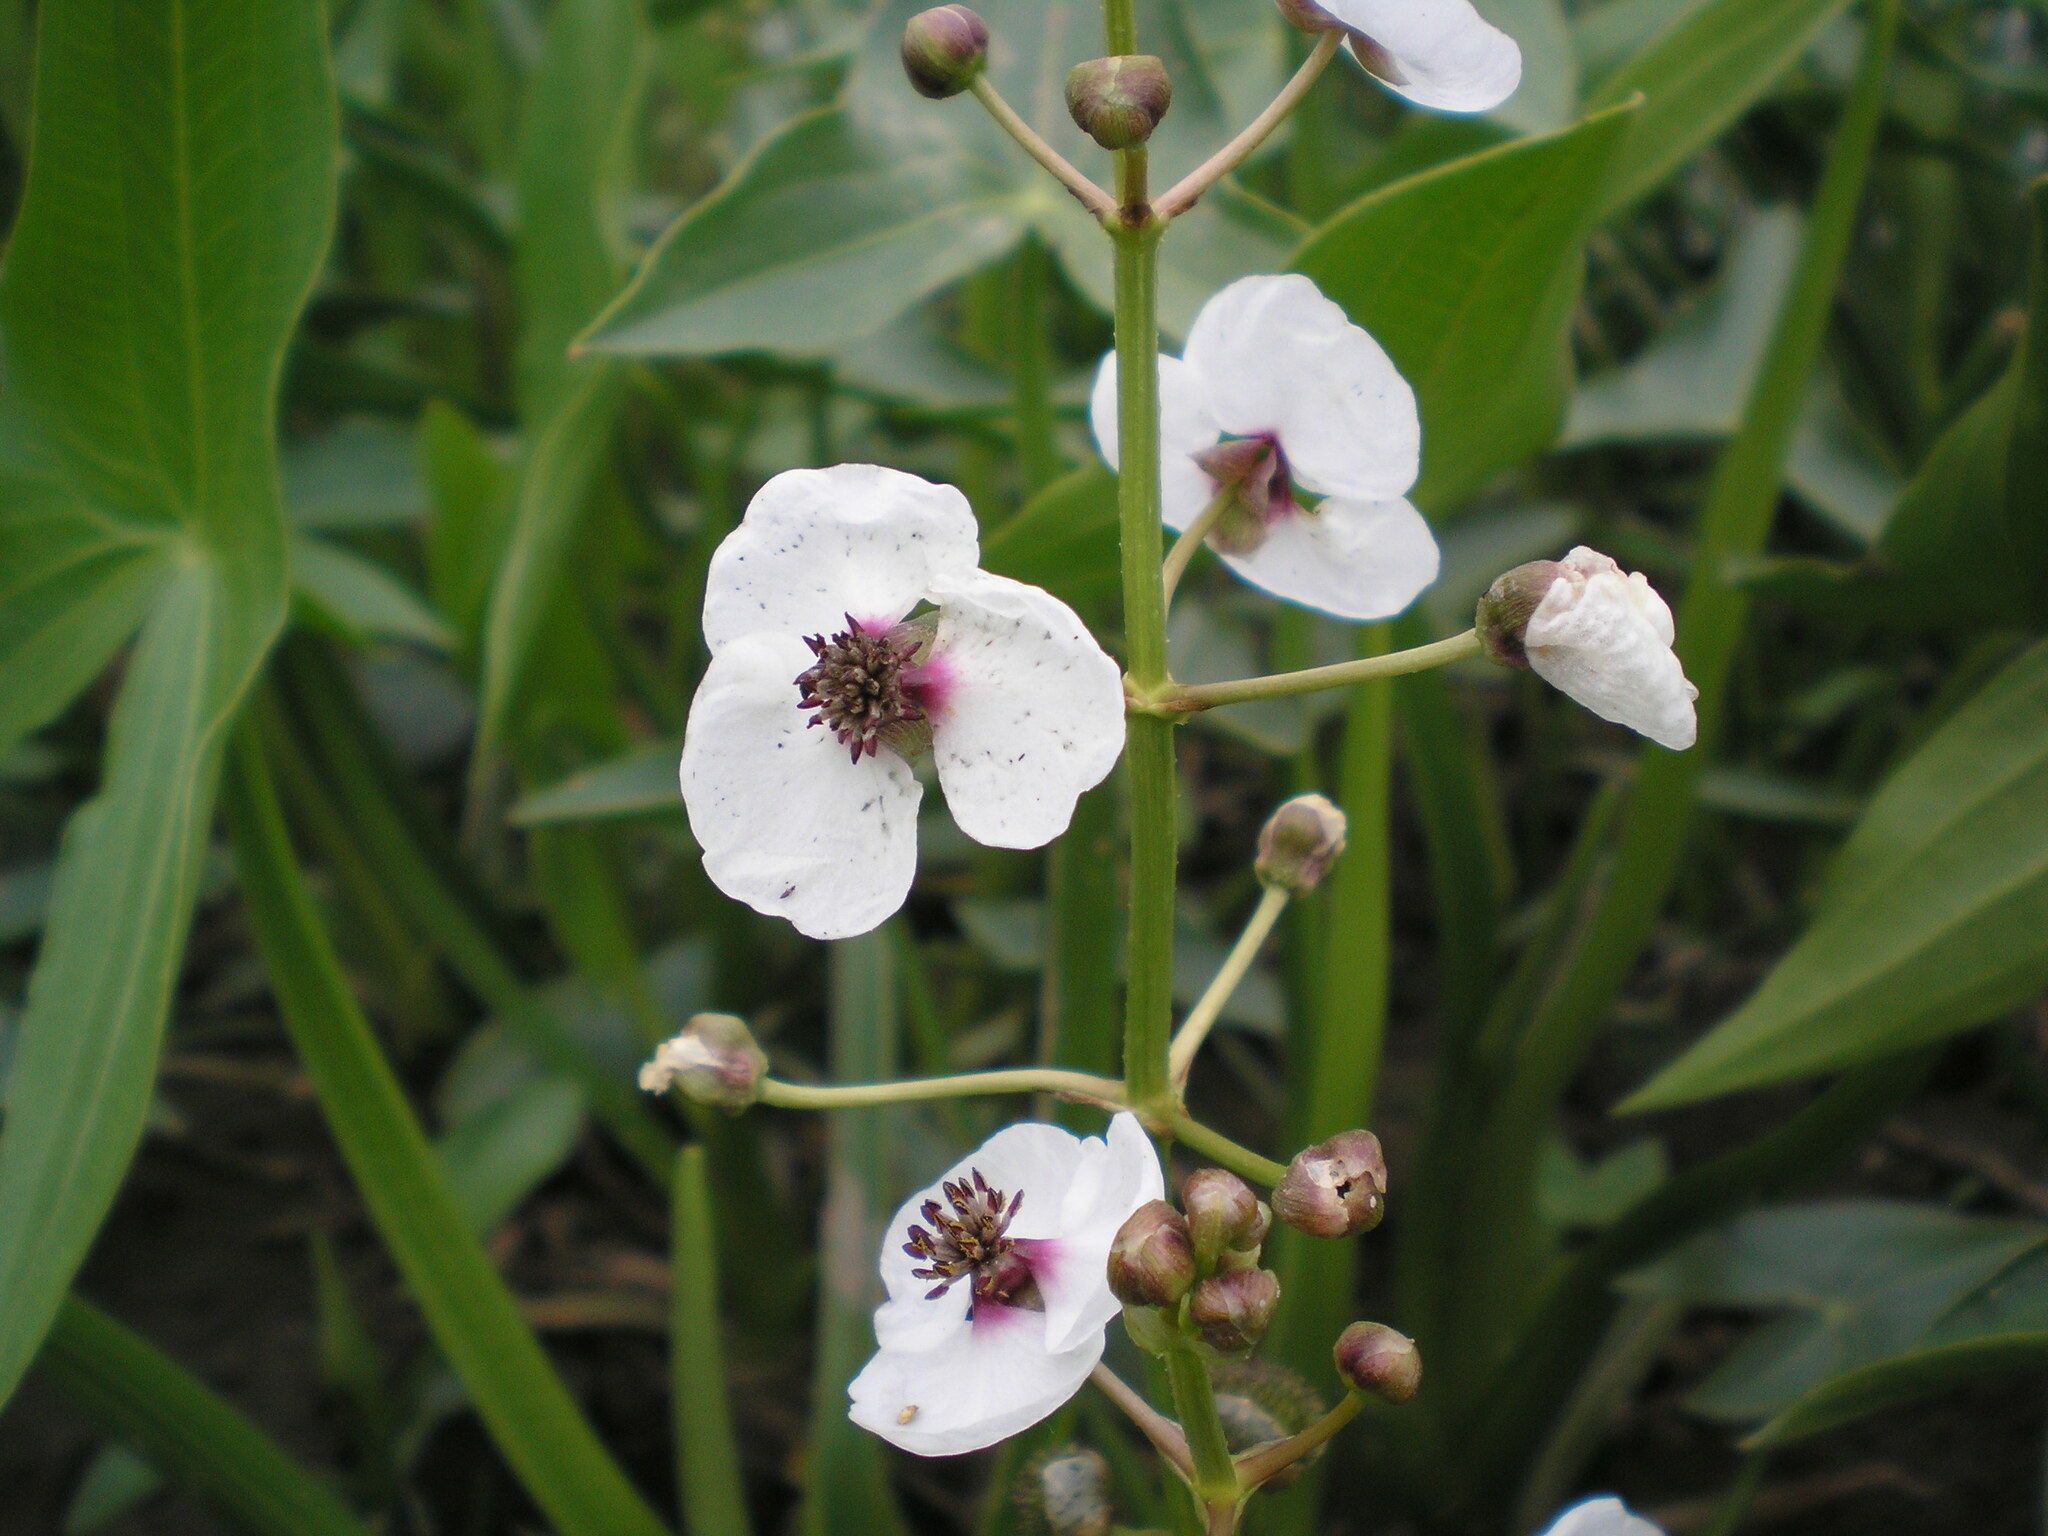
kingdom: Plantae
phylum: Tracheophyta
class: Liliopsida
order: Alismatales
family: Alismataceae
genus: Sagittaria
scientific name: Sagittaria sagittifolia
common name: Arrowhead
